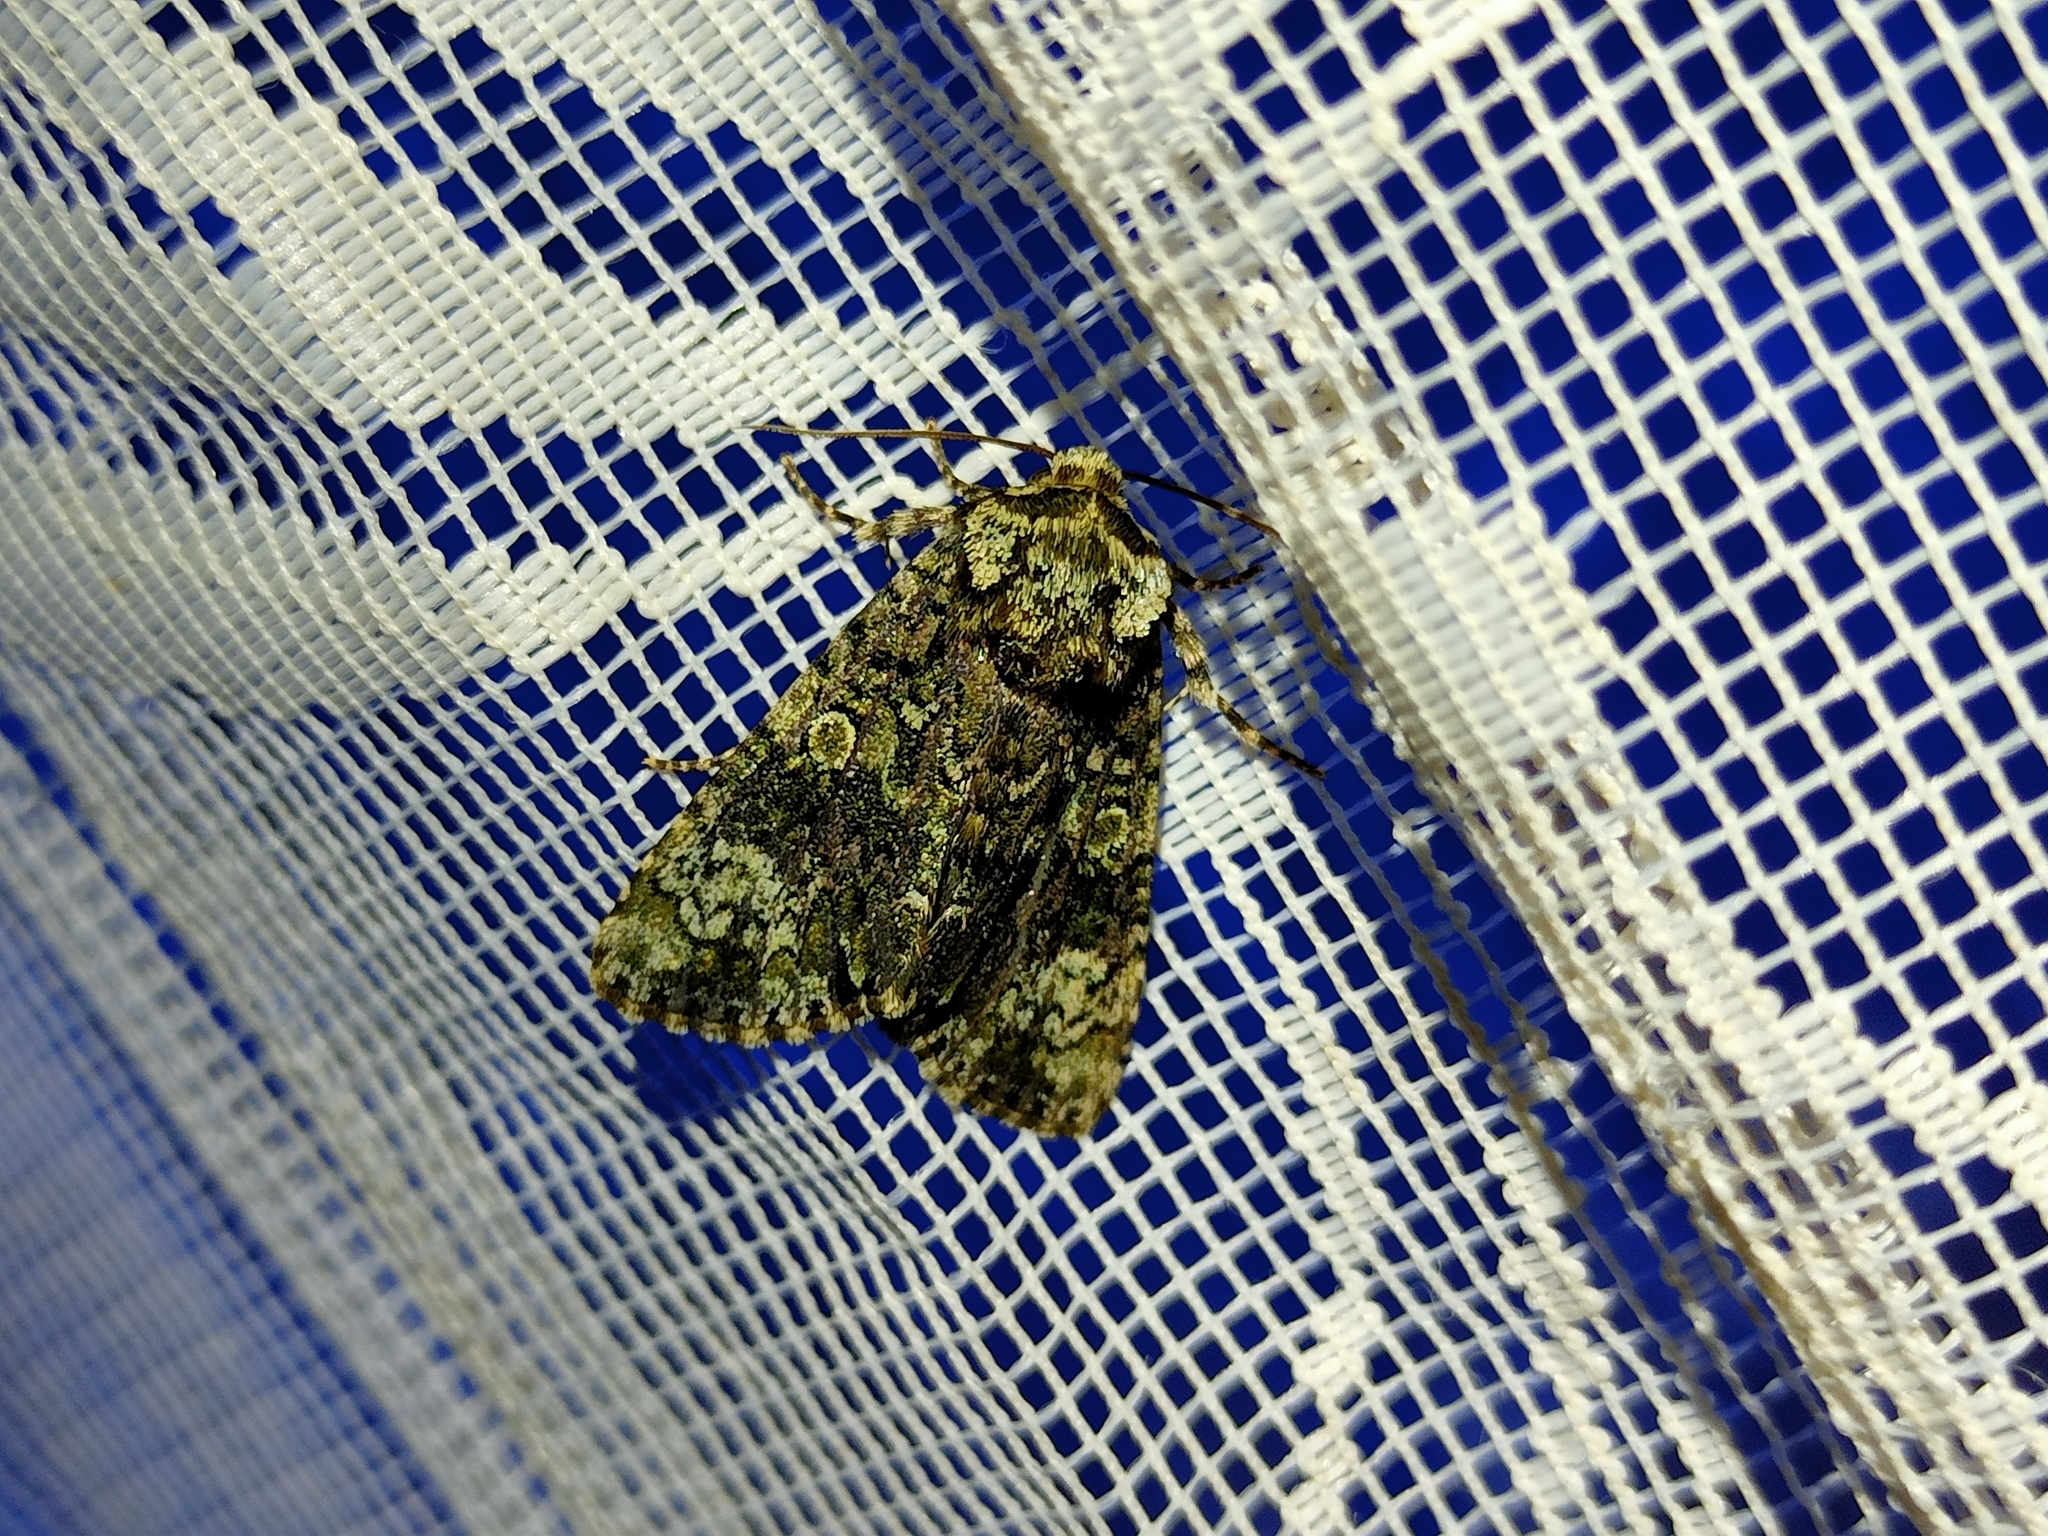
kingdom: Animalia
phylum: Arthropoda
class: Insecta
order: Lepidoptera
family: Noctuidae
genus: Craniophora
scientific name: Craniophora ligustri
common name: Coronet
